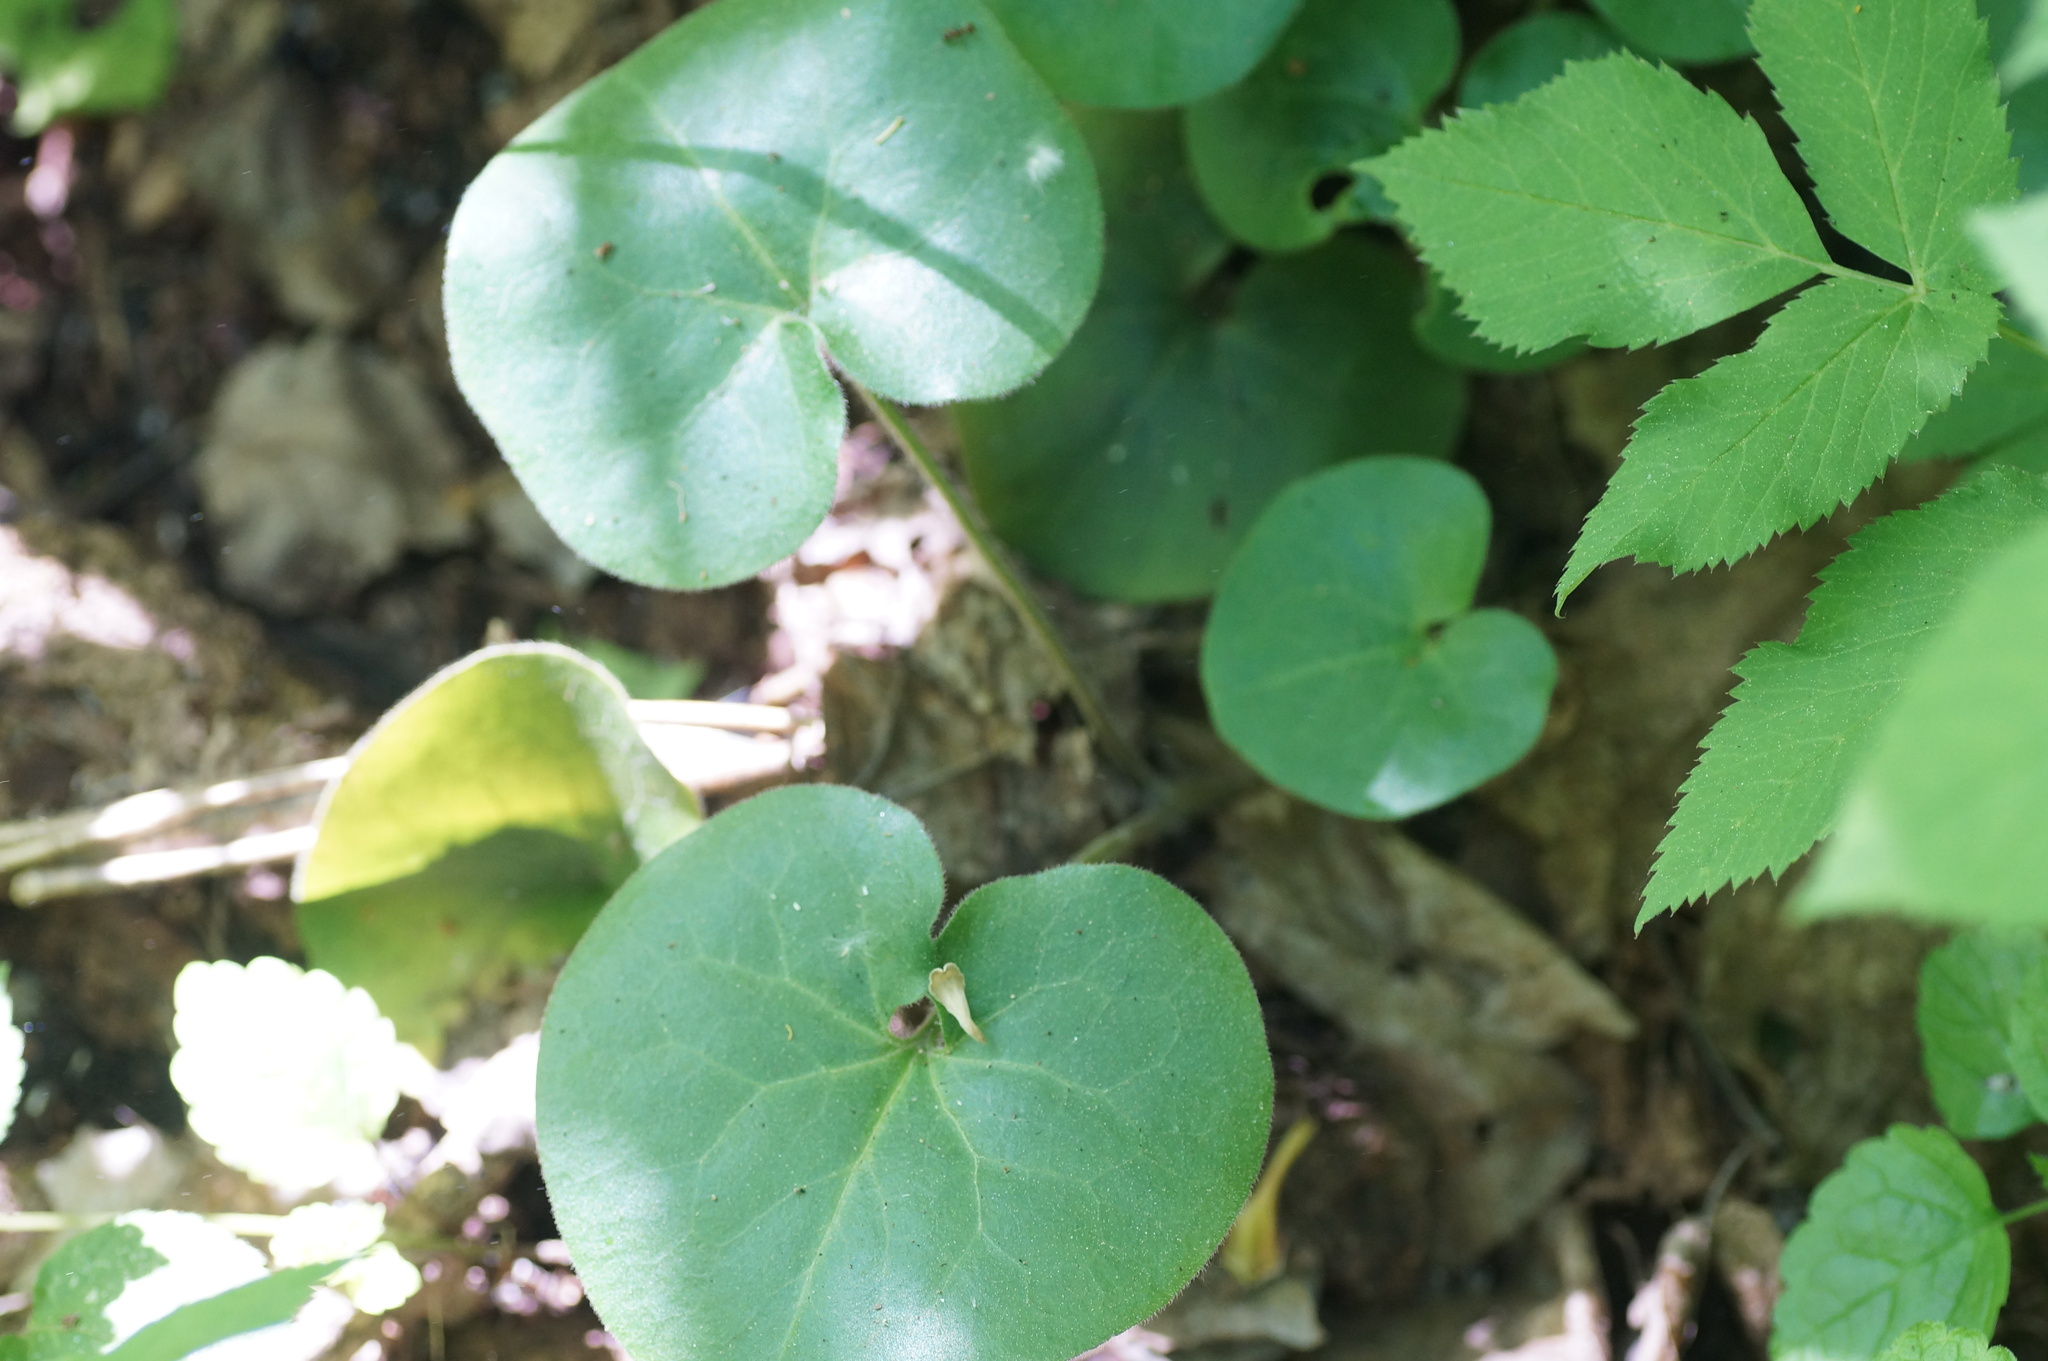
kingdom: Plantae
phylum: Tracheophyta
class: Magnoliopsida
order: Piperales
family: Aristolochiaceae
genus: Asarum
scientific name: Asarum europaeum
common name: Asarabacca
